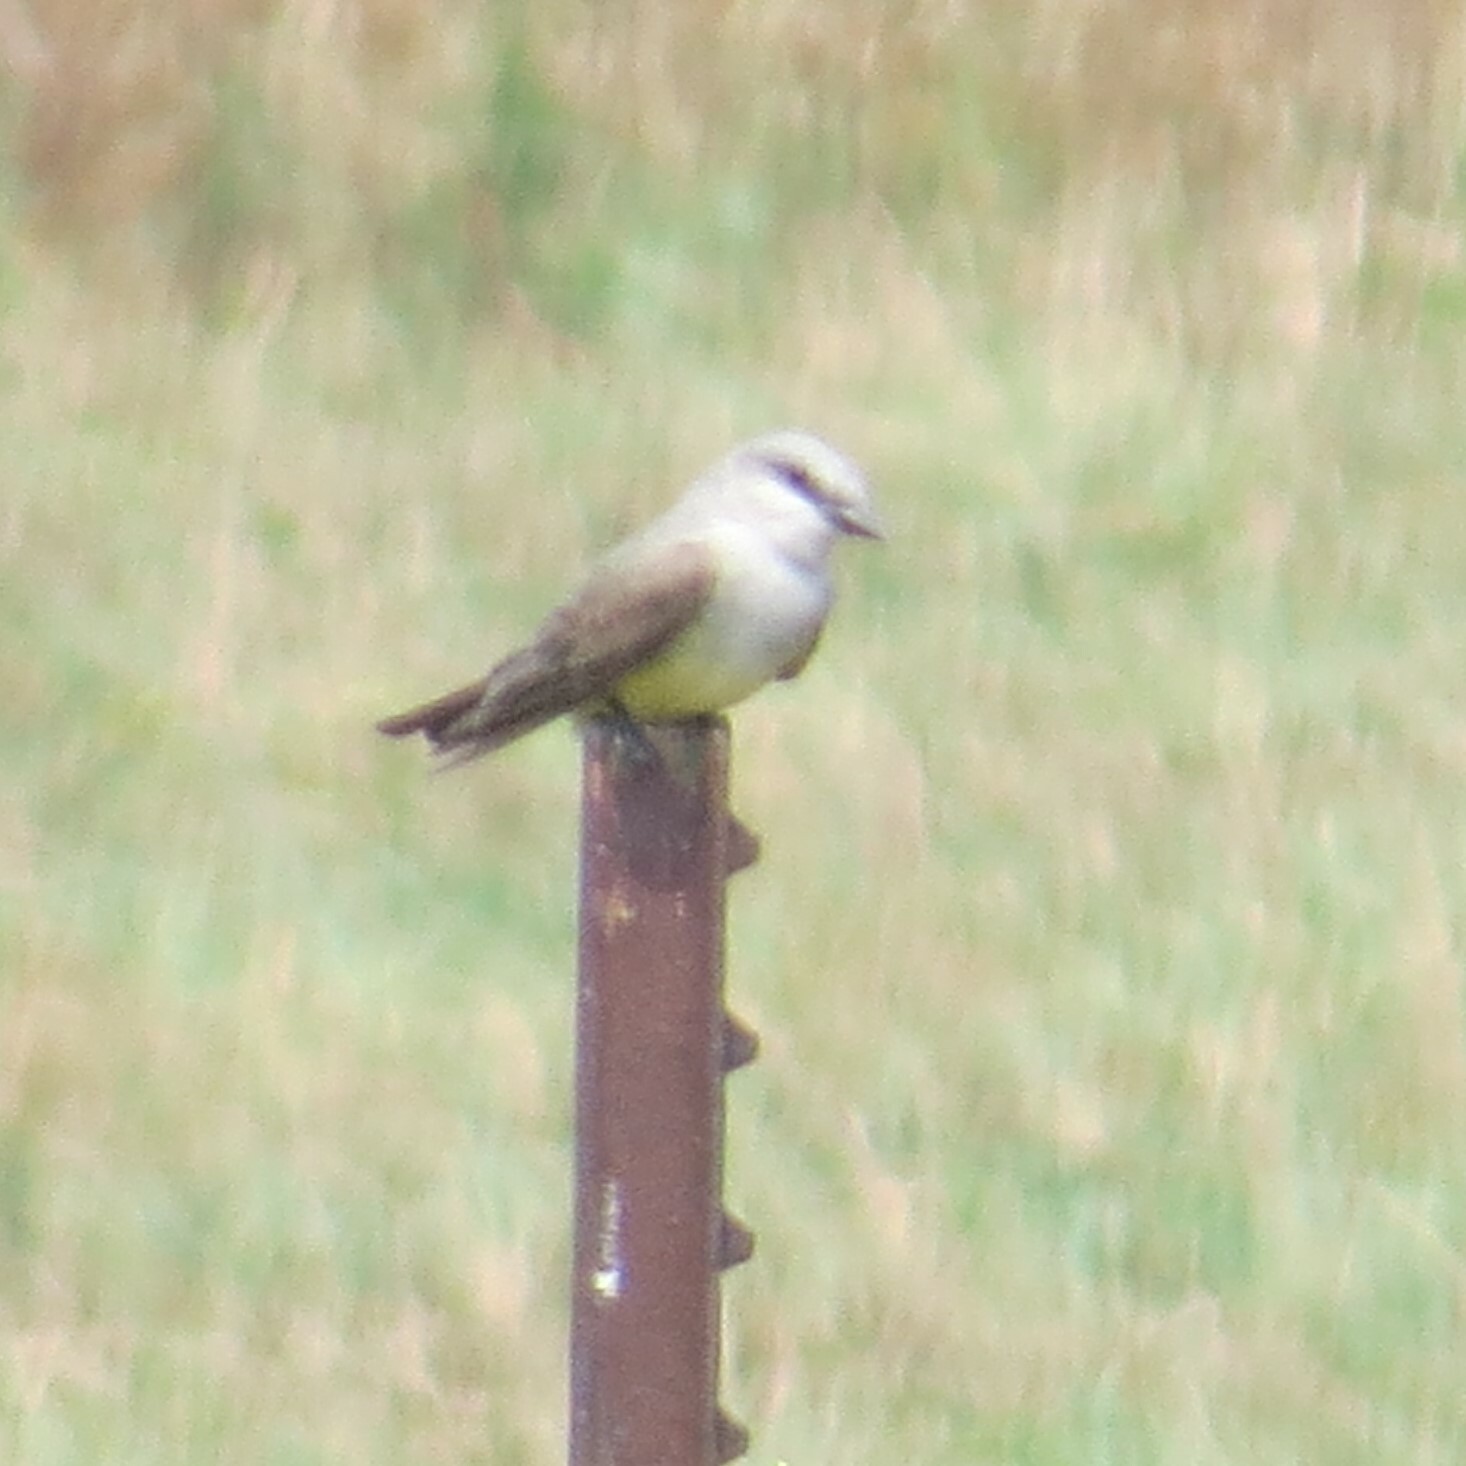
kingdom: Animalia
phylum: Chordata
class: Aves
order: Passeriformes
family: Tyrannidae
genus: Tyrannus
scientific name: Tyrannus verticalis
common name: Western kingbird
